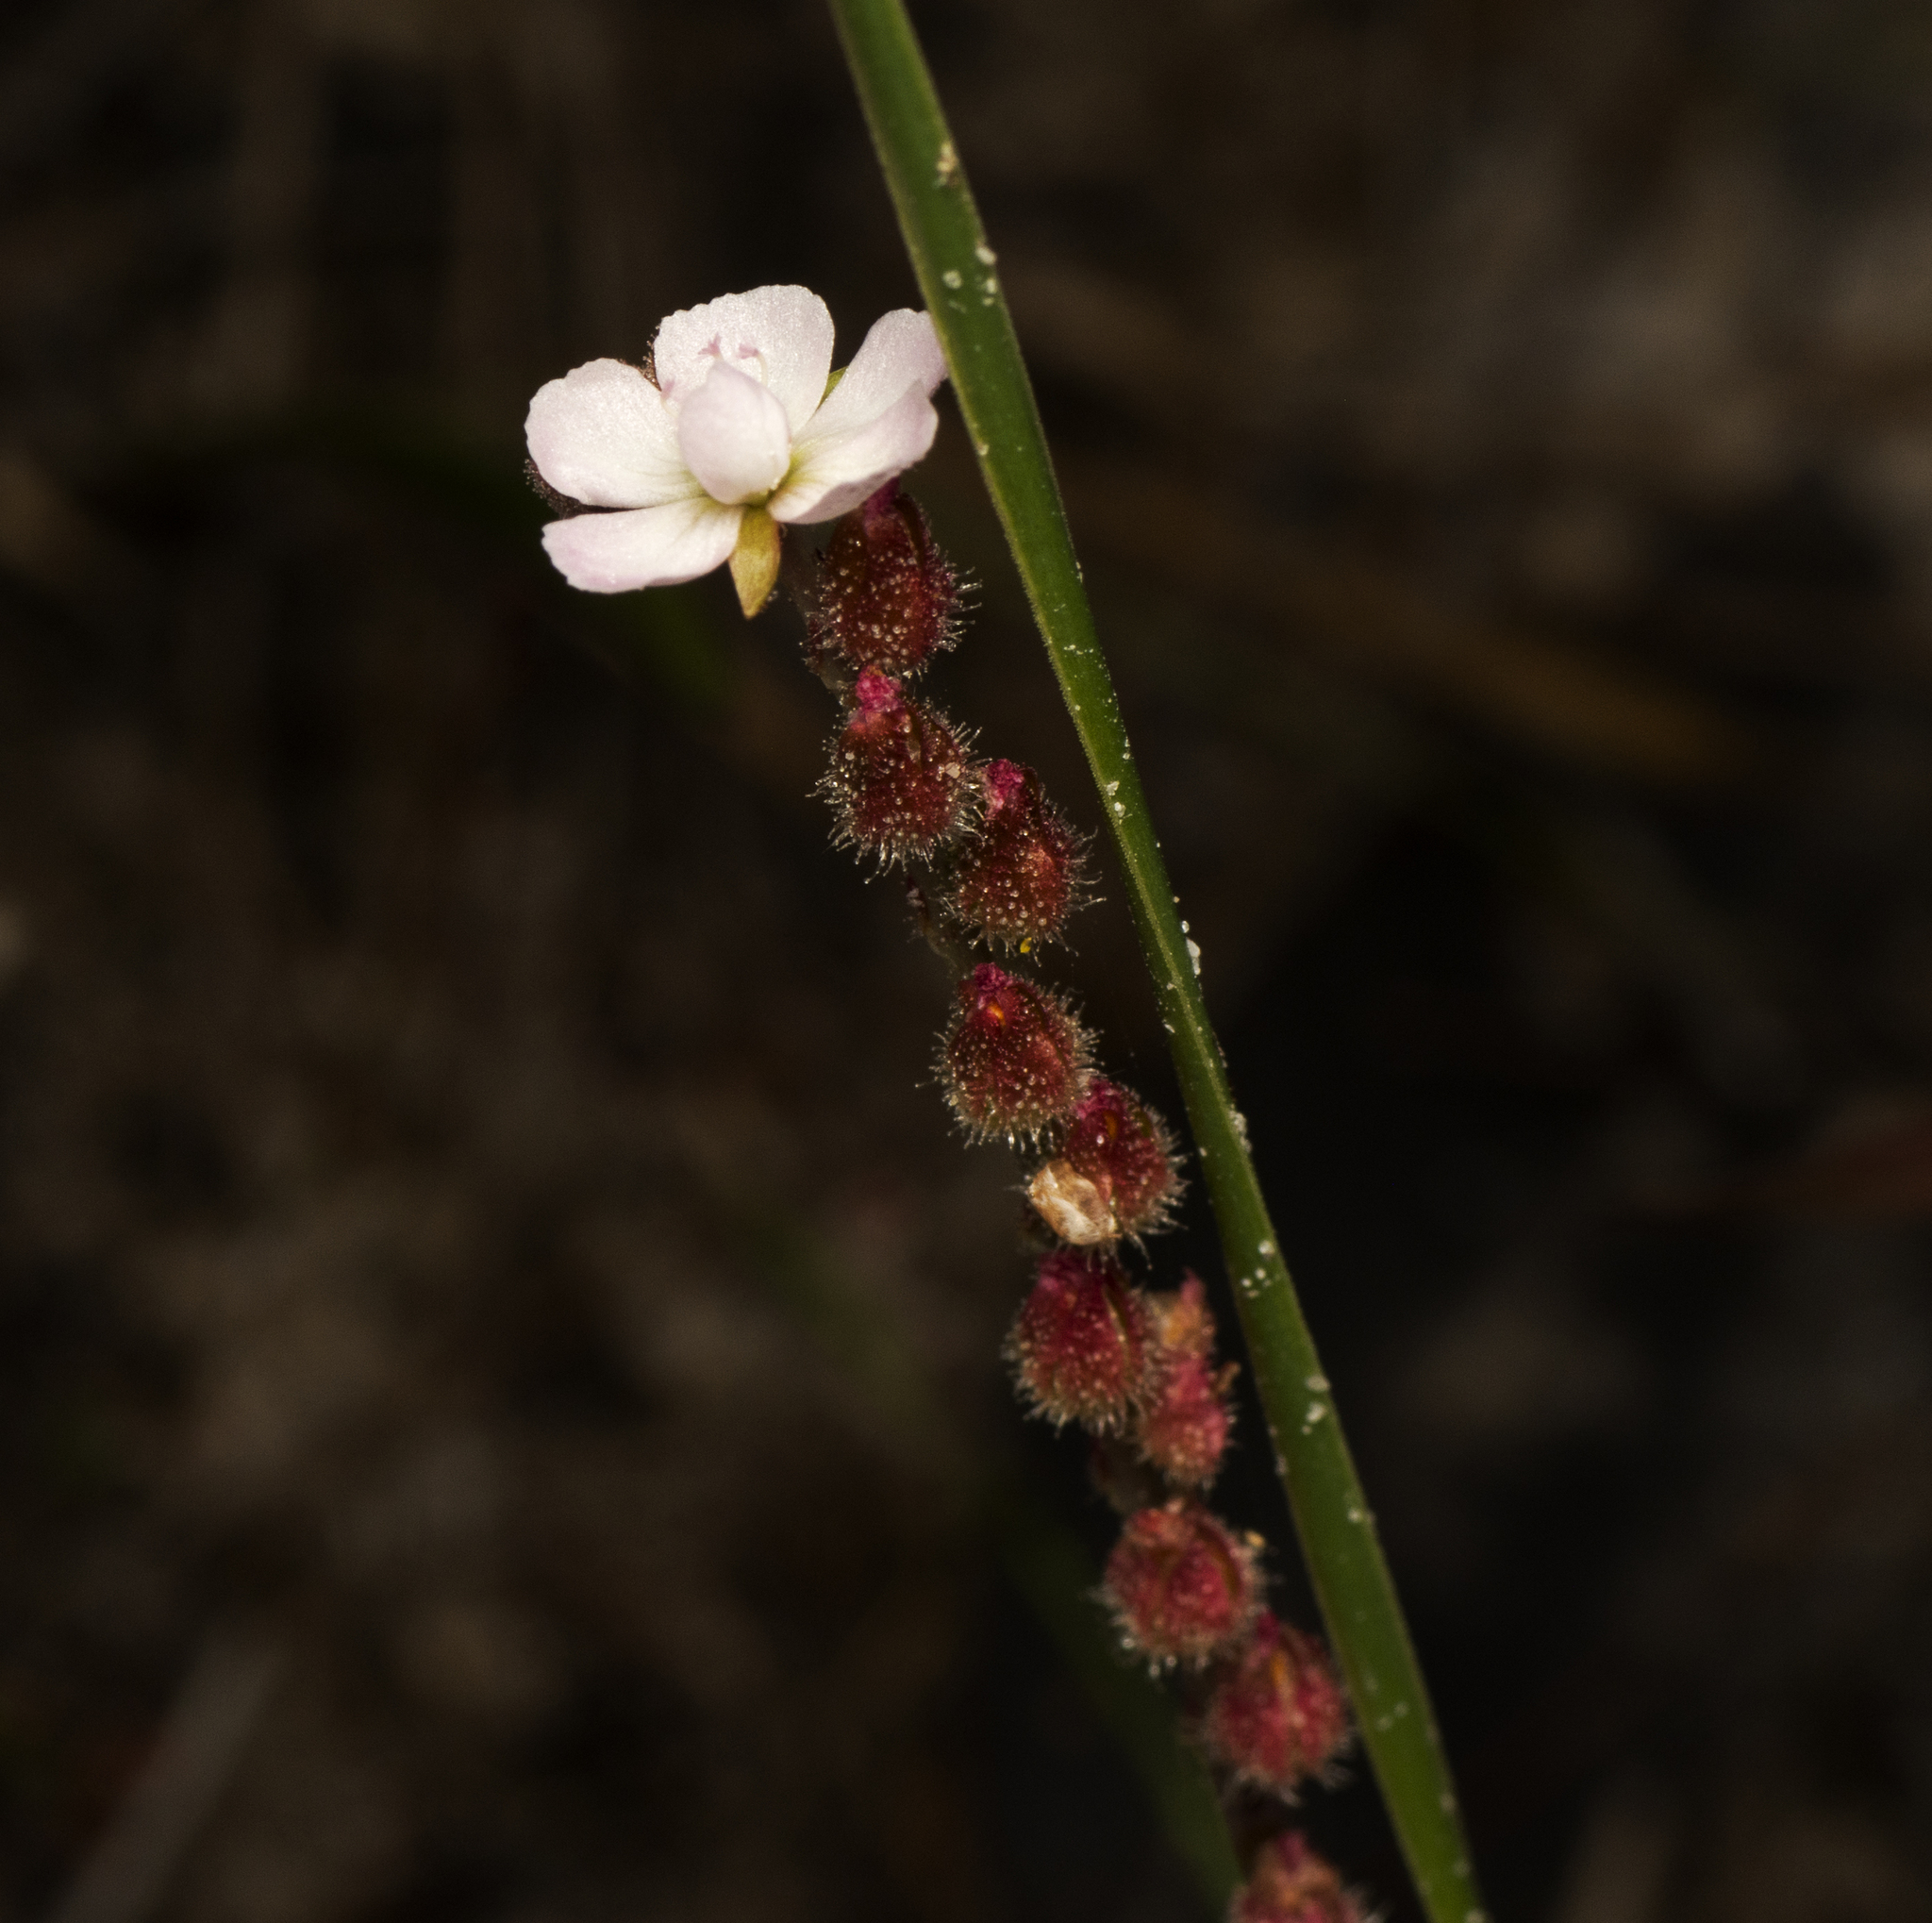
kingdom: Plantae
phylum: Tracheophyta
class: Magnoliopsida
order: Caryophyllales
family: Droseraceae
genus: Drosera
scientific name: Drosera spatulata
